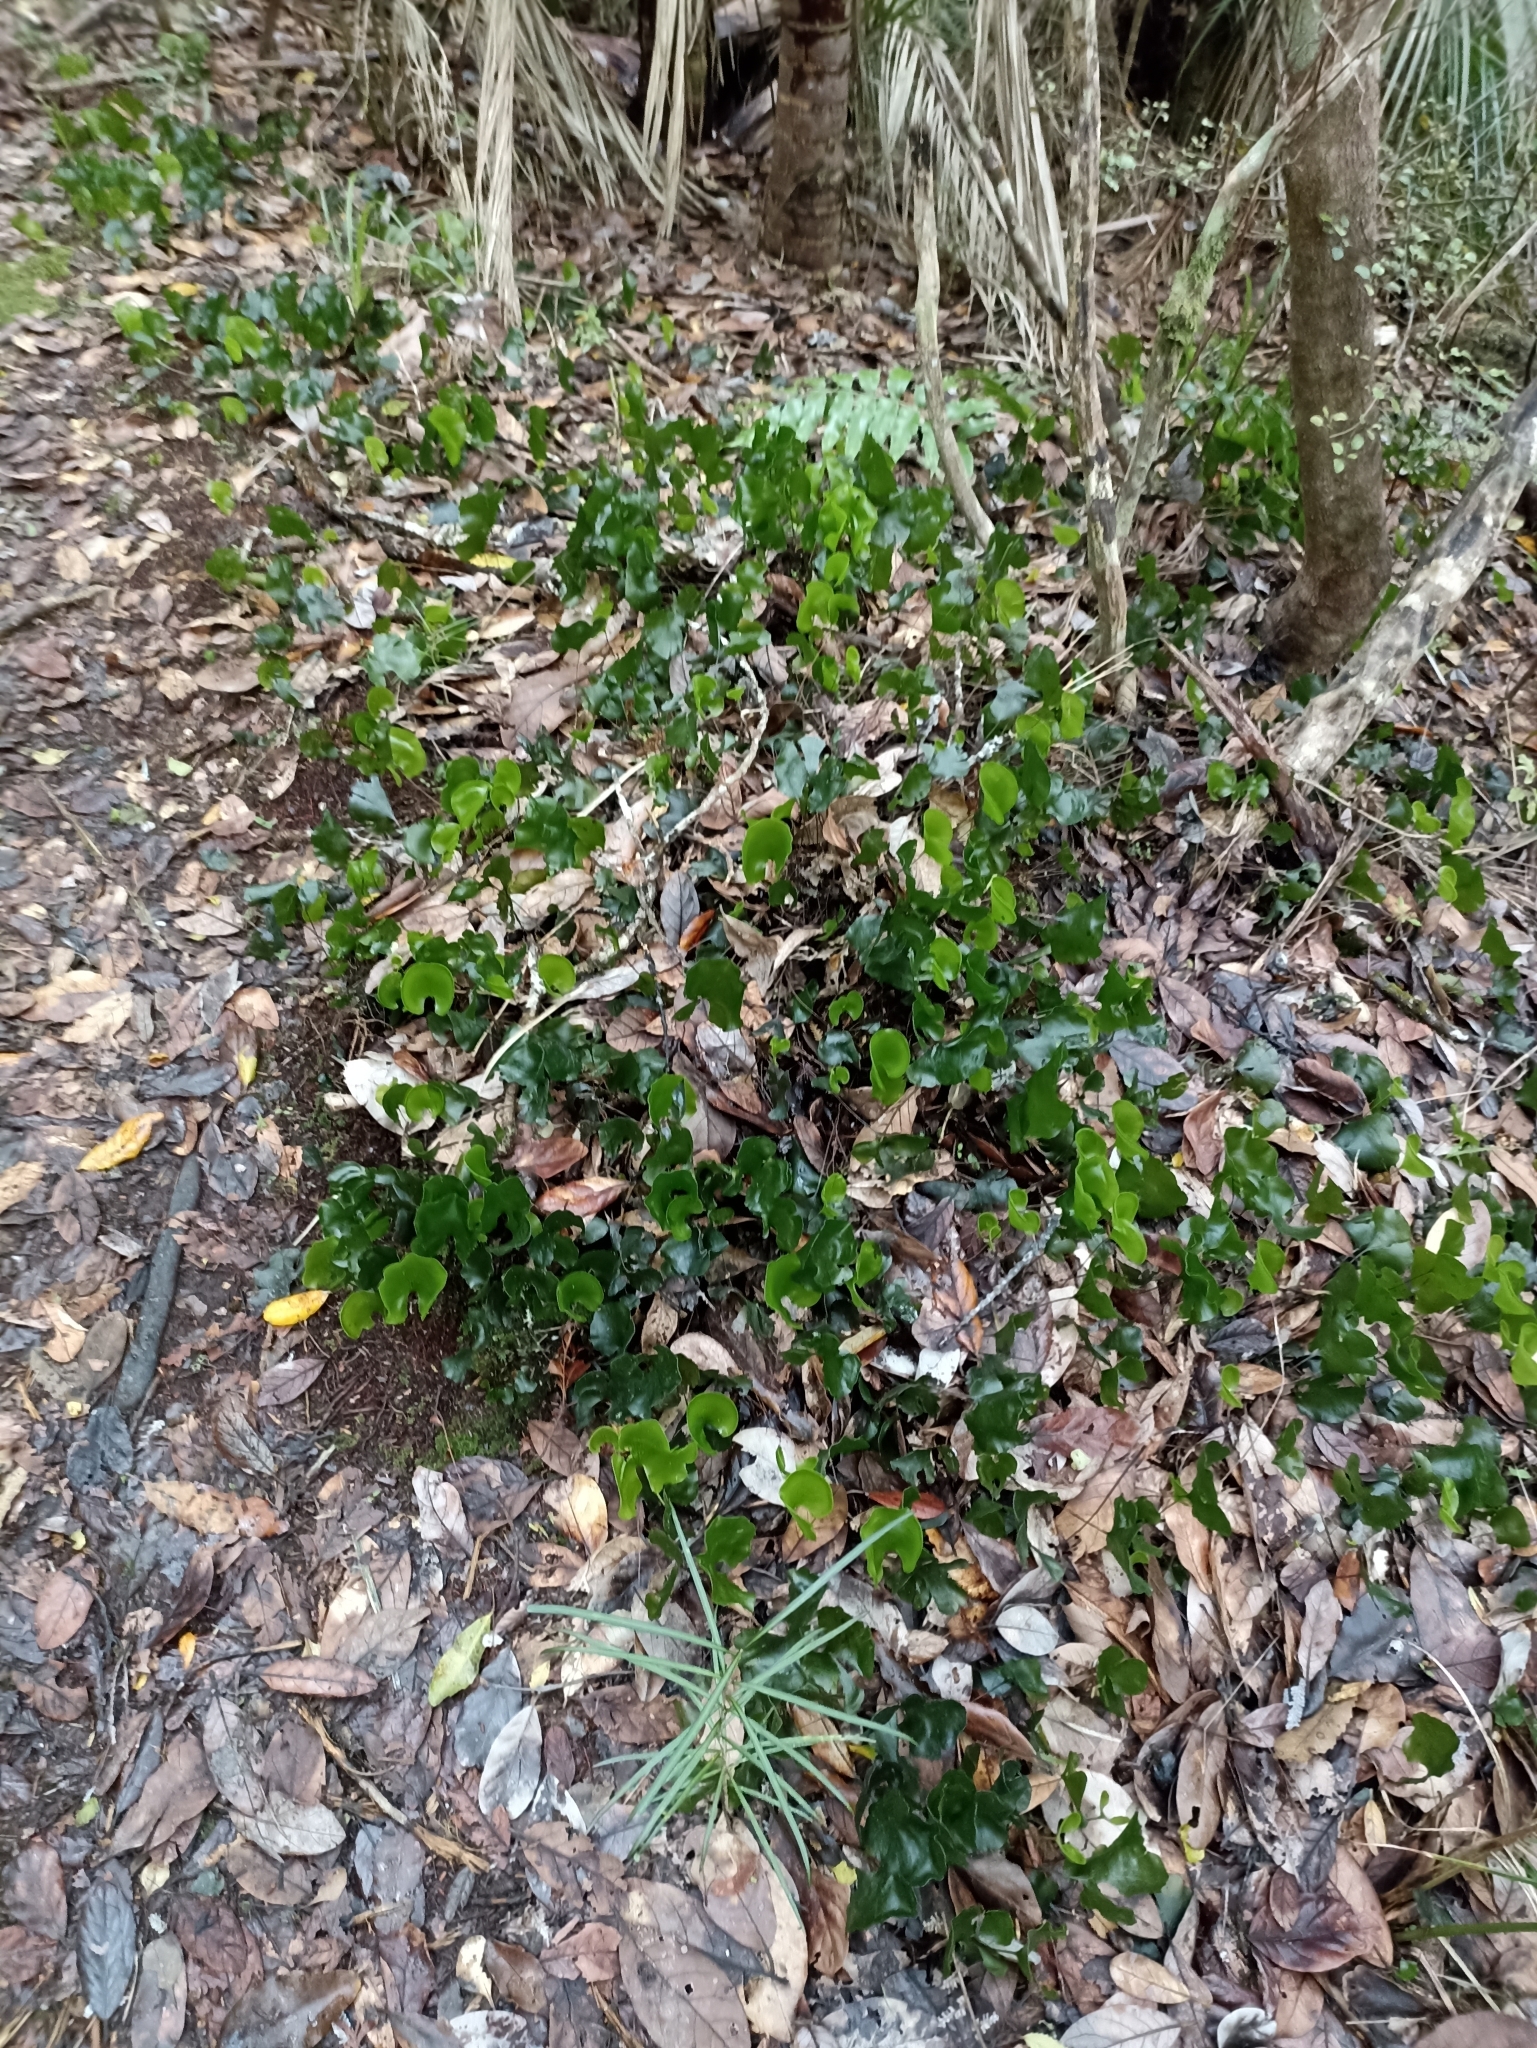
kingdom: Plantae
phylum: Tracheophyta
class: Polypodiopsida
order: Hymenophyllales
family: Hymenophyllaceae
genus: Hymenophyllum
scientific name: Hymenophyllum nephrophyllum
